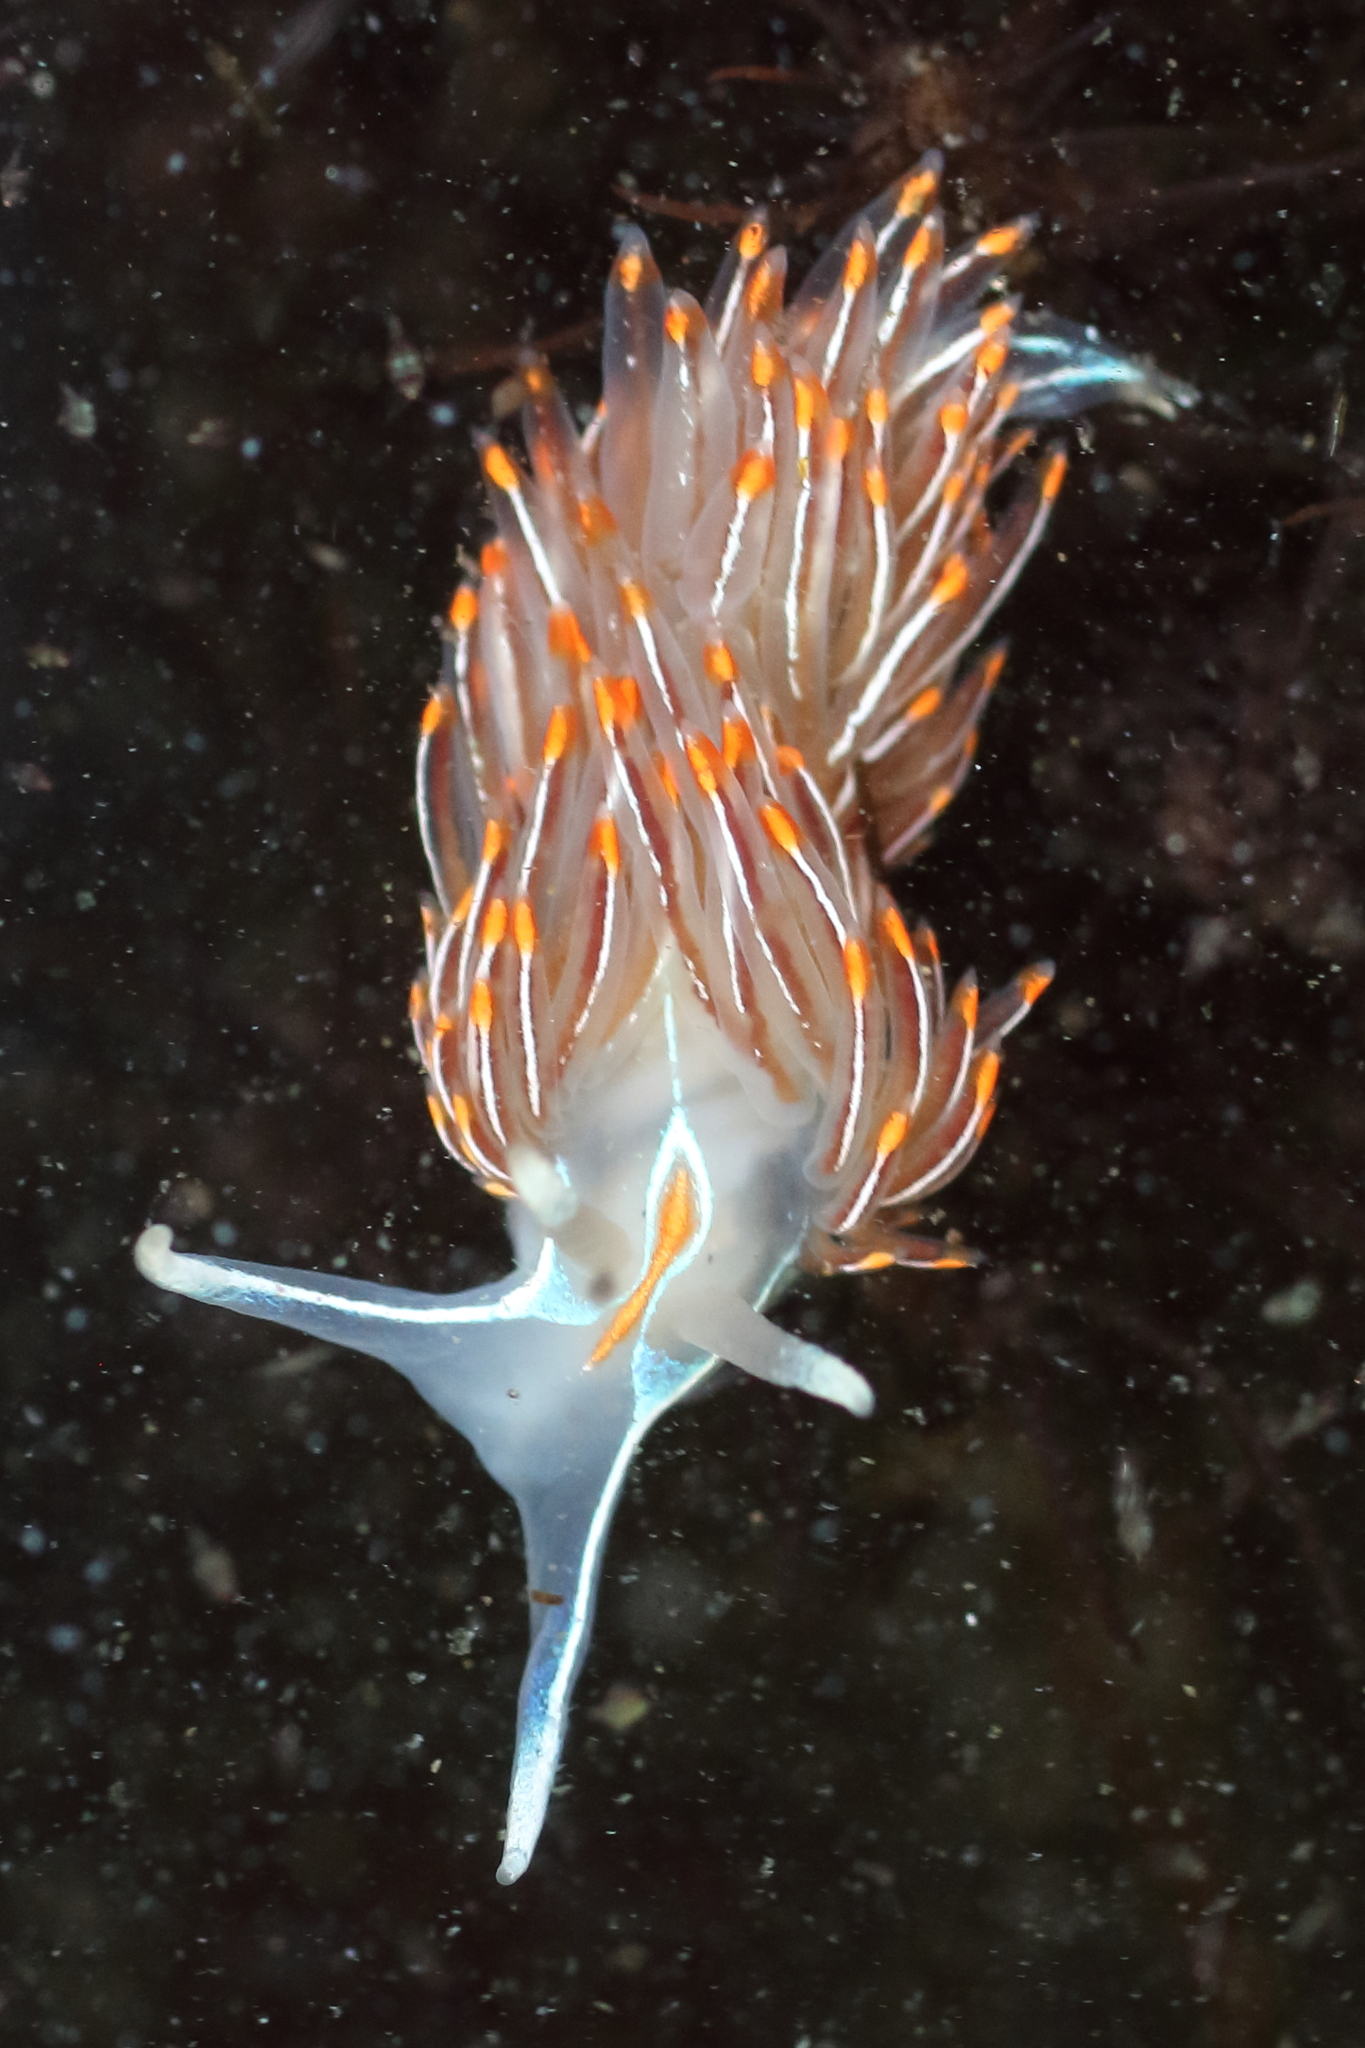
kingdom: Animalia
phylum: Mollusca
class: Gastropoda
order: Nudibranchia
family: Myrrhinidae
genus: Hermissenda
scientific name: Hermissenda crassicornis
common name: Hermissenda
